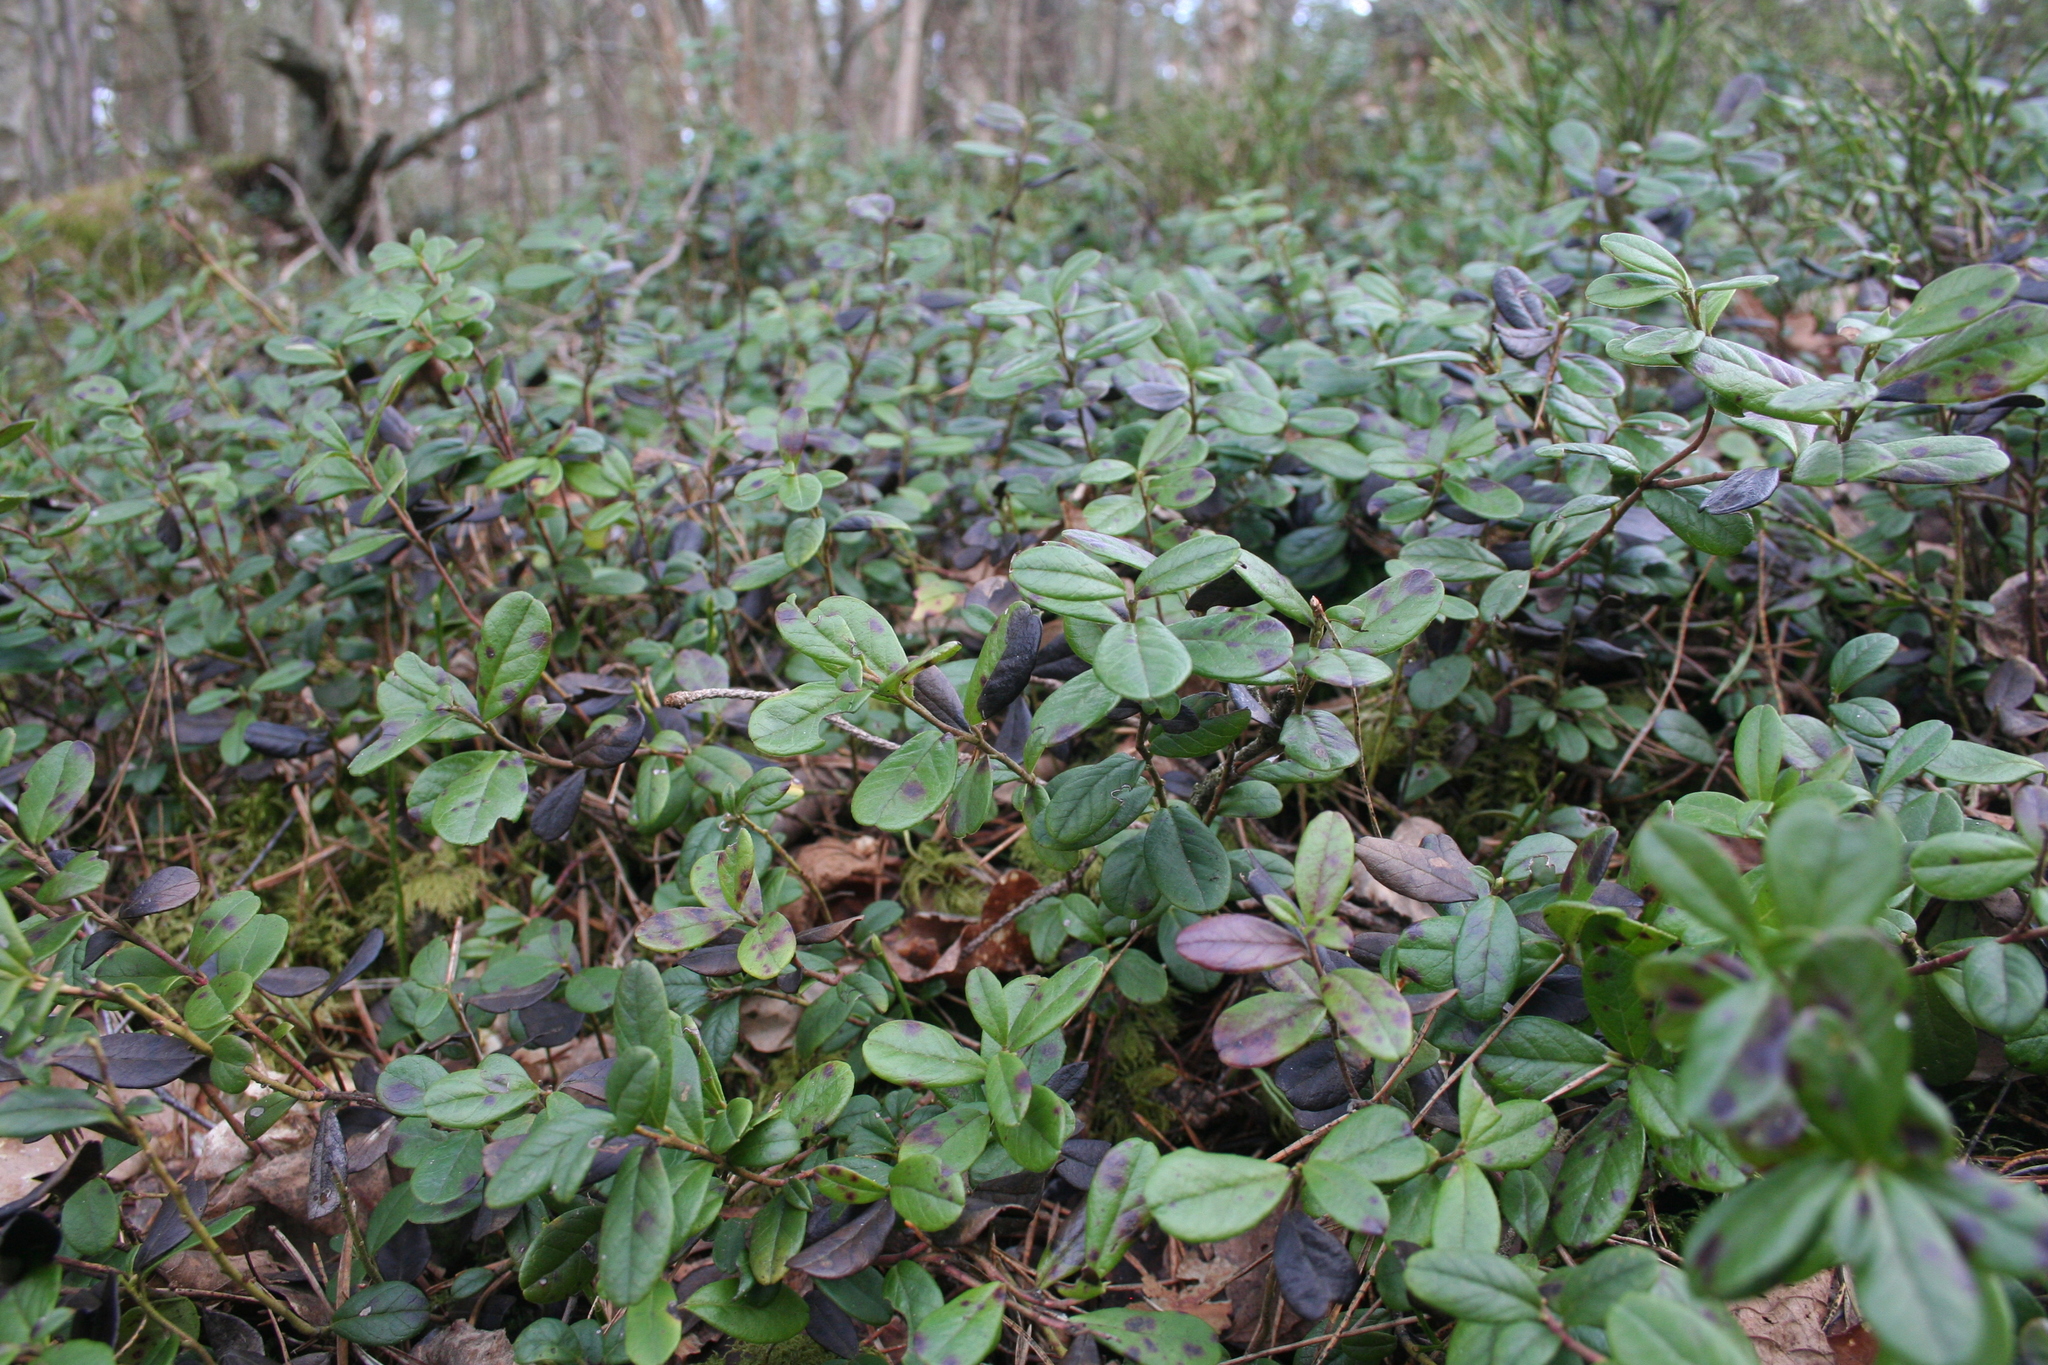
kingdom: Plantae
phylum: Tracheophyta
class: Magnoliopsida
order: Ericales
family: Ericaceae
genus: Vaccinium
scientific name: Vaccinium vitis-idaea
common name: Cowberry
